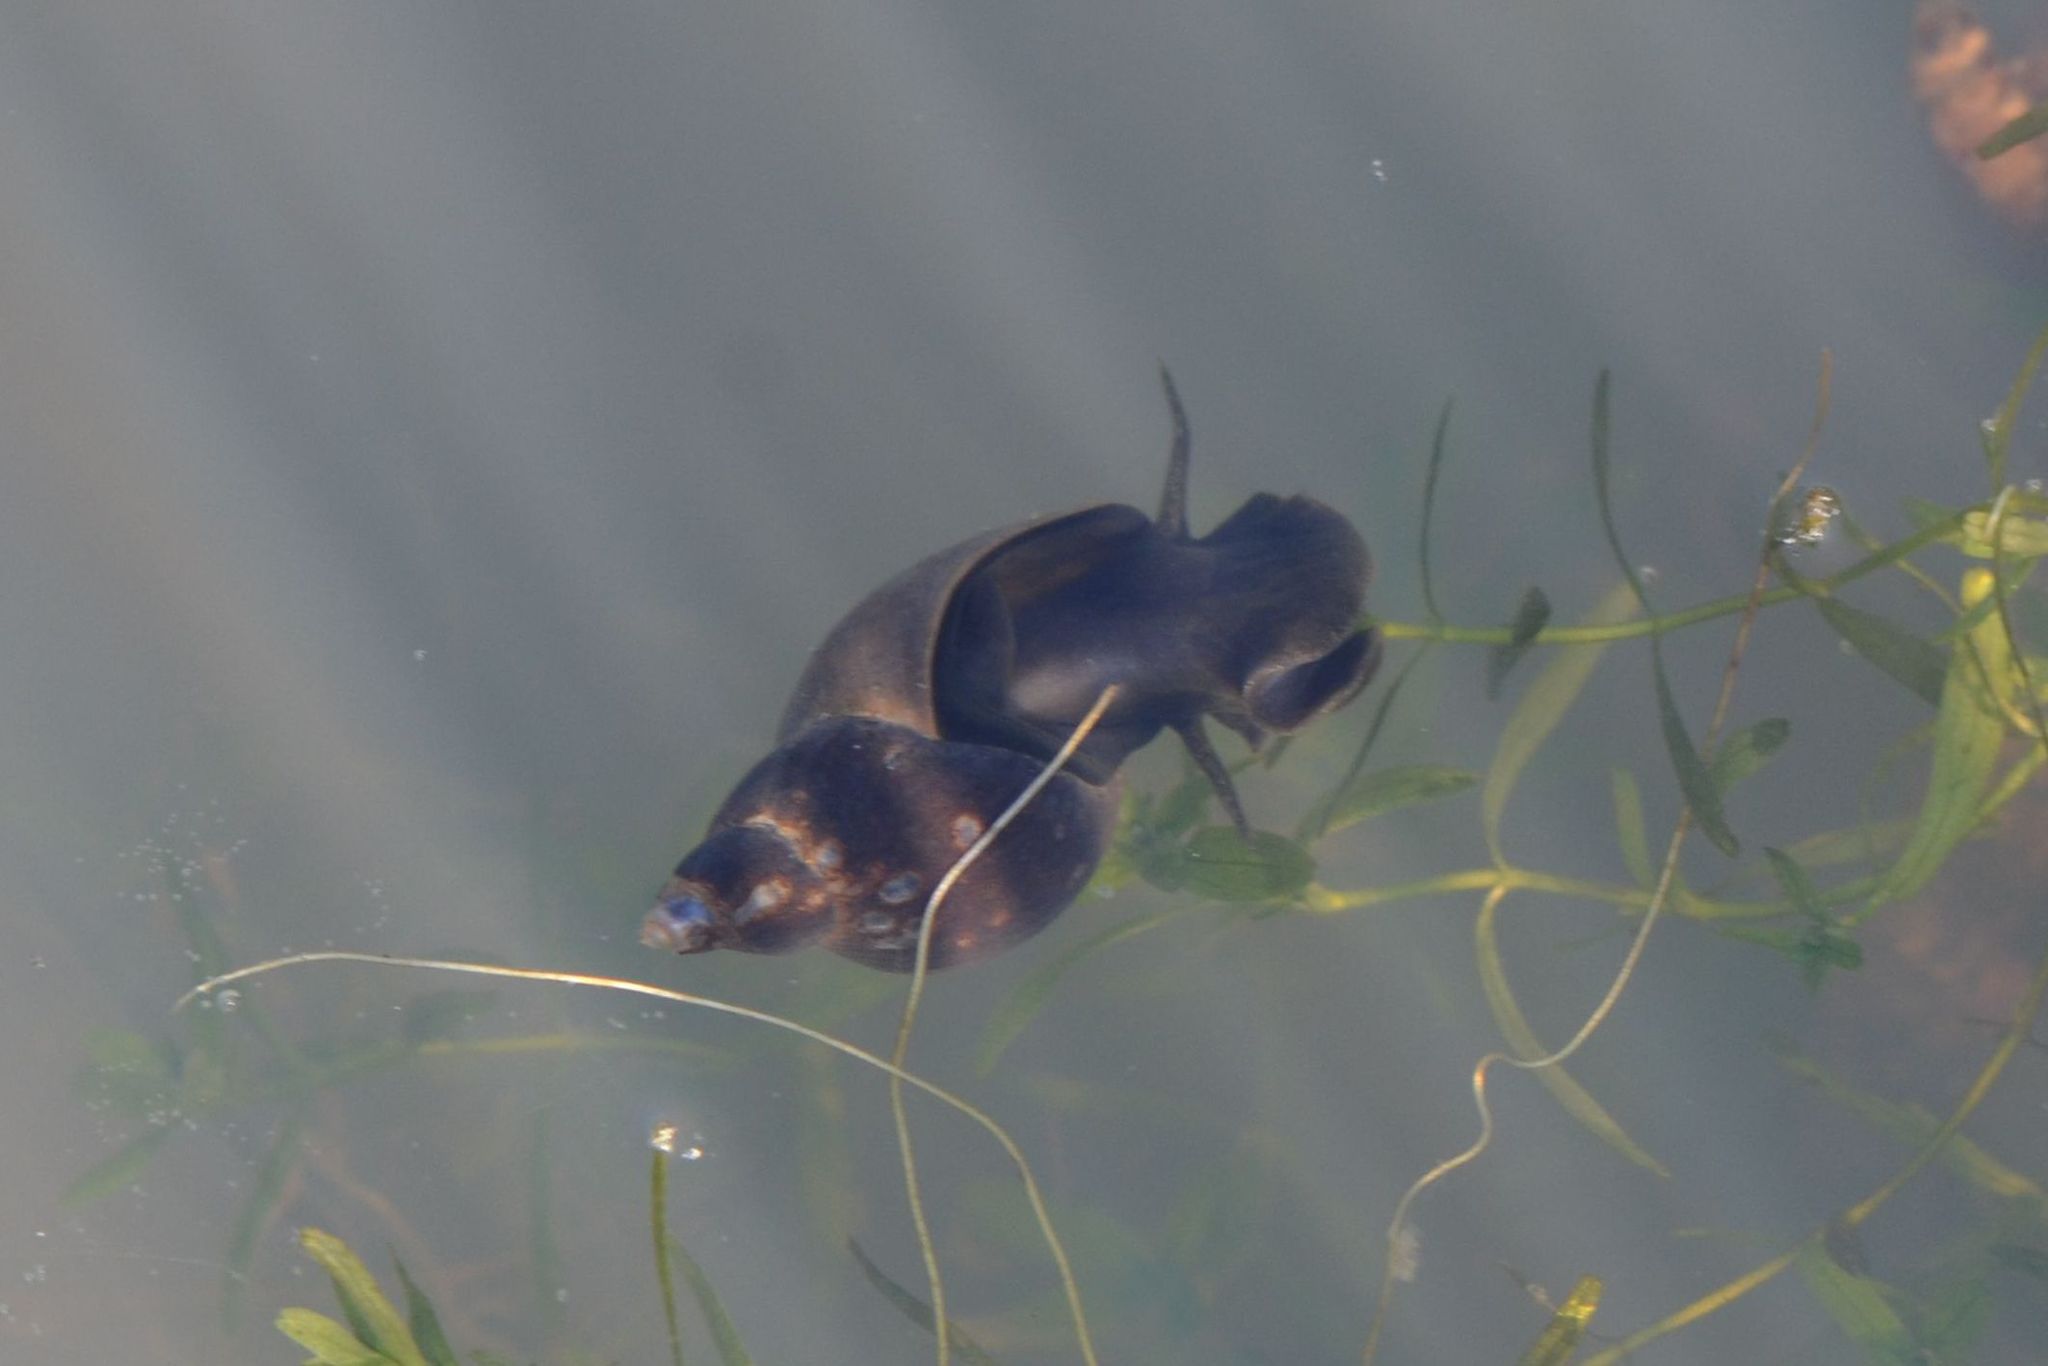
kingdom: Animalia
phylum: Mollusca
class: Gastropoda
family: Lymnaeidae
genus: Lymnaea
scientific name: Lymnaea stagnalis
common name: Great pond snail
